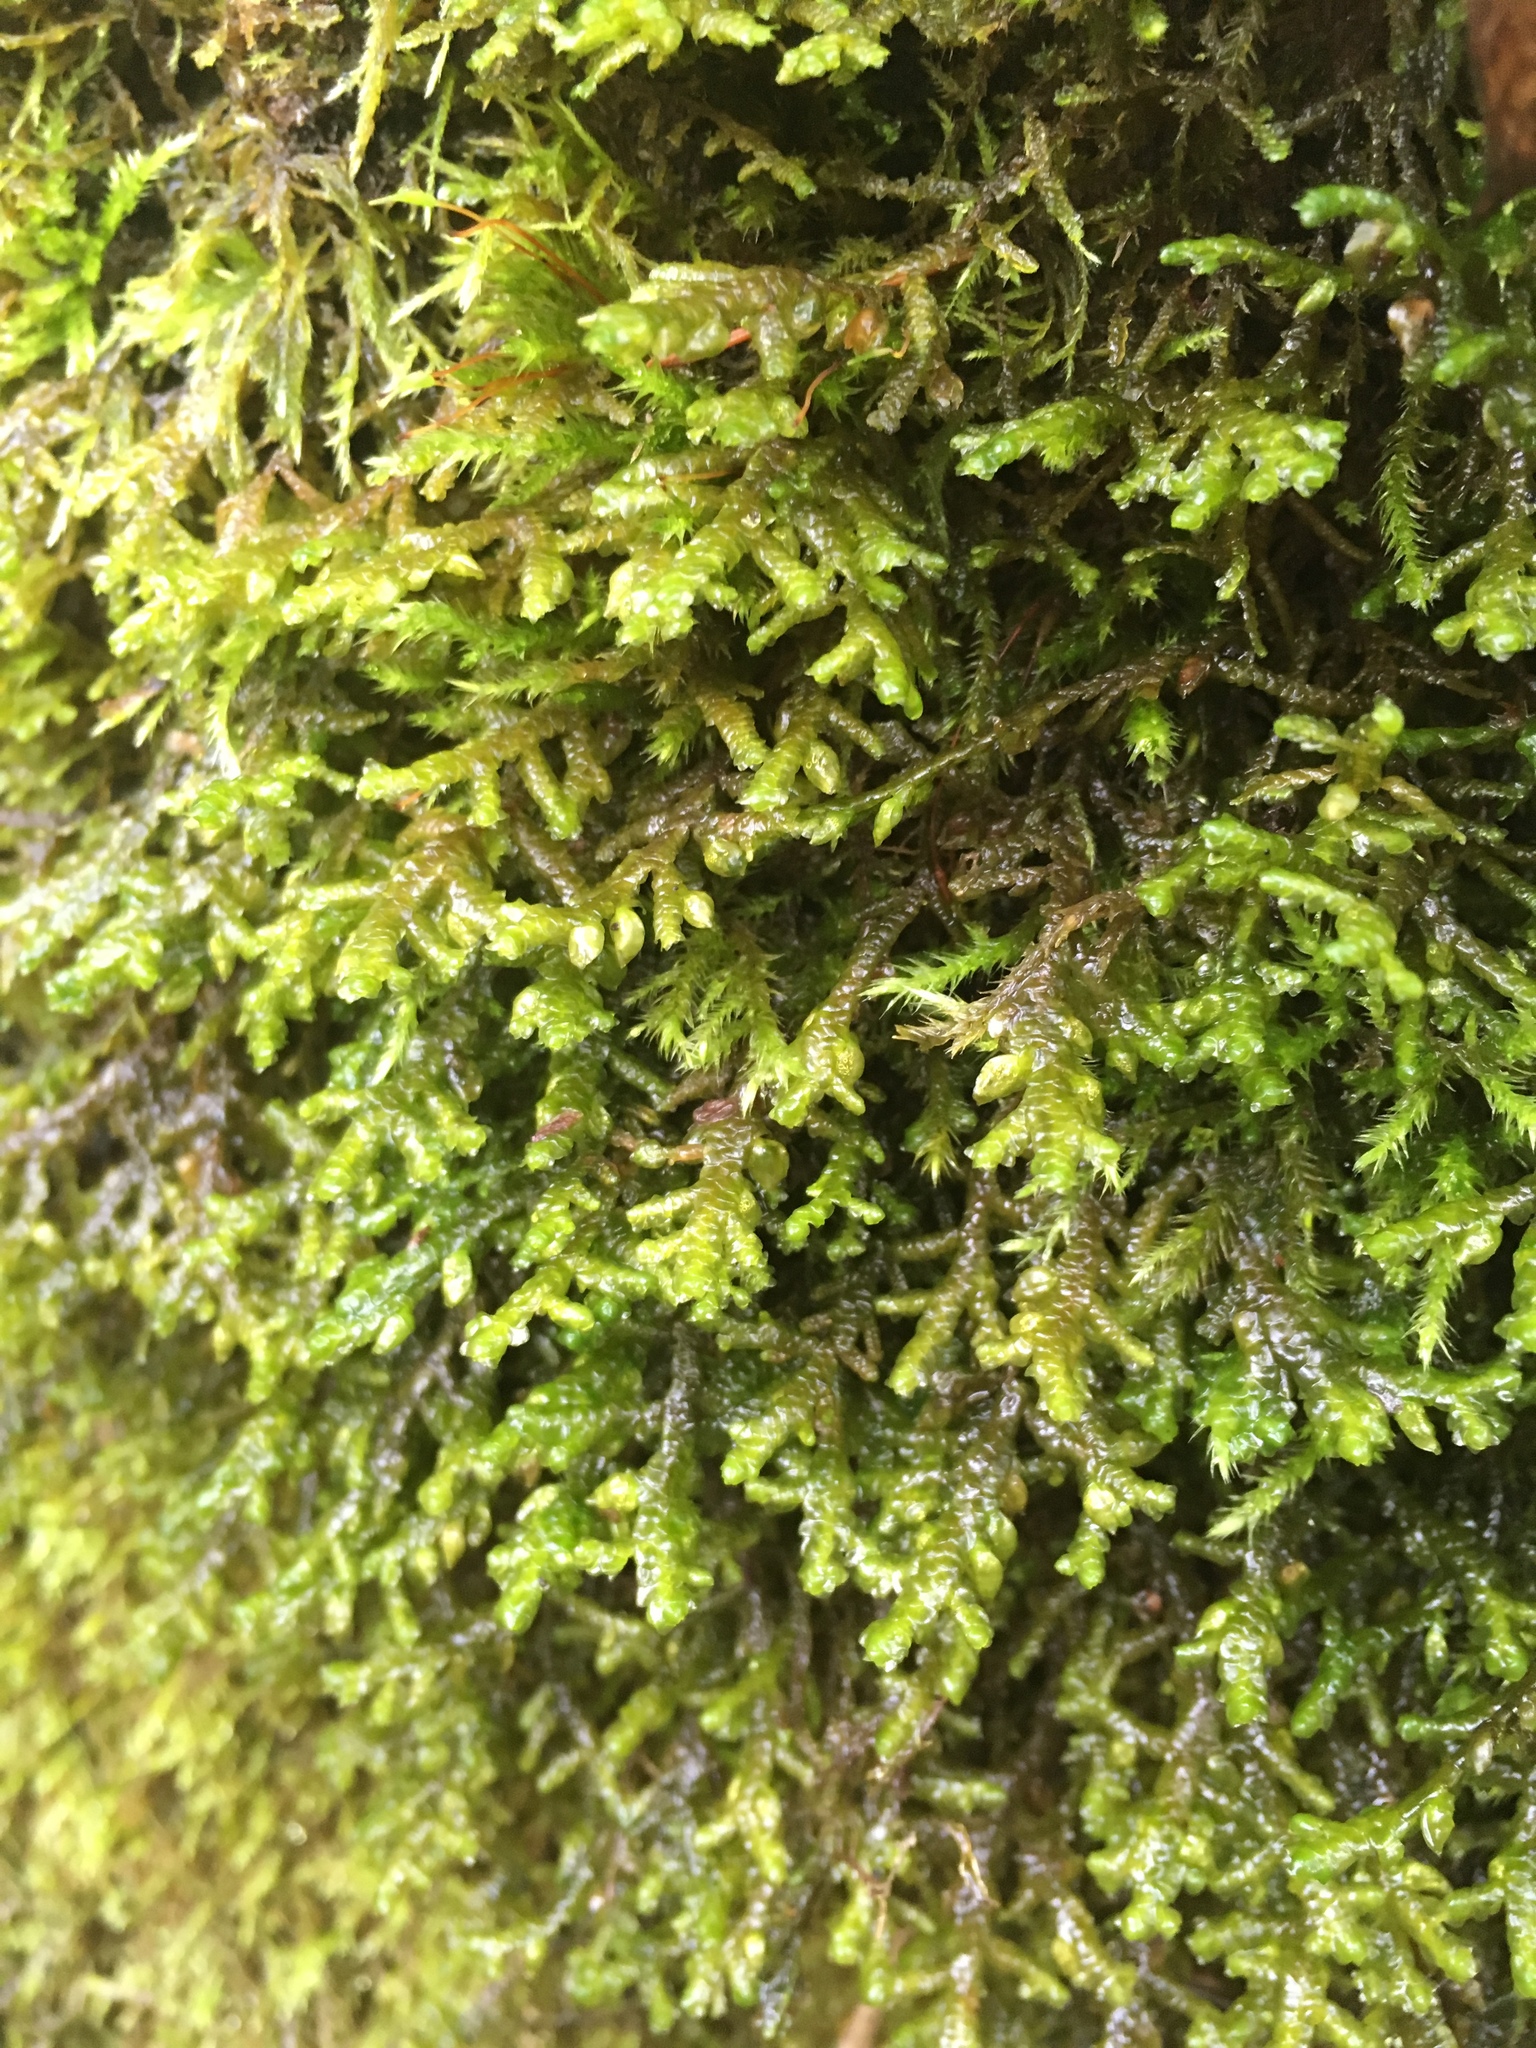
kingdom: Plantae
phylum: Marchantiophyta
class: Jungermanniopsida
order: Porellales
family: Porellaceae
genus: Porella
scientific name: Porella navicularis
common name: Tree ruffle liverwort
